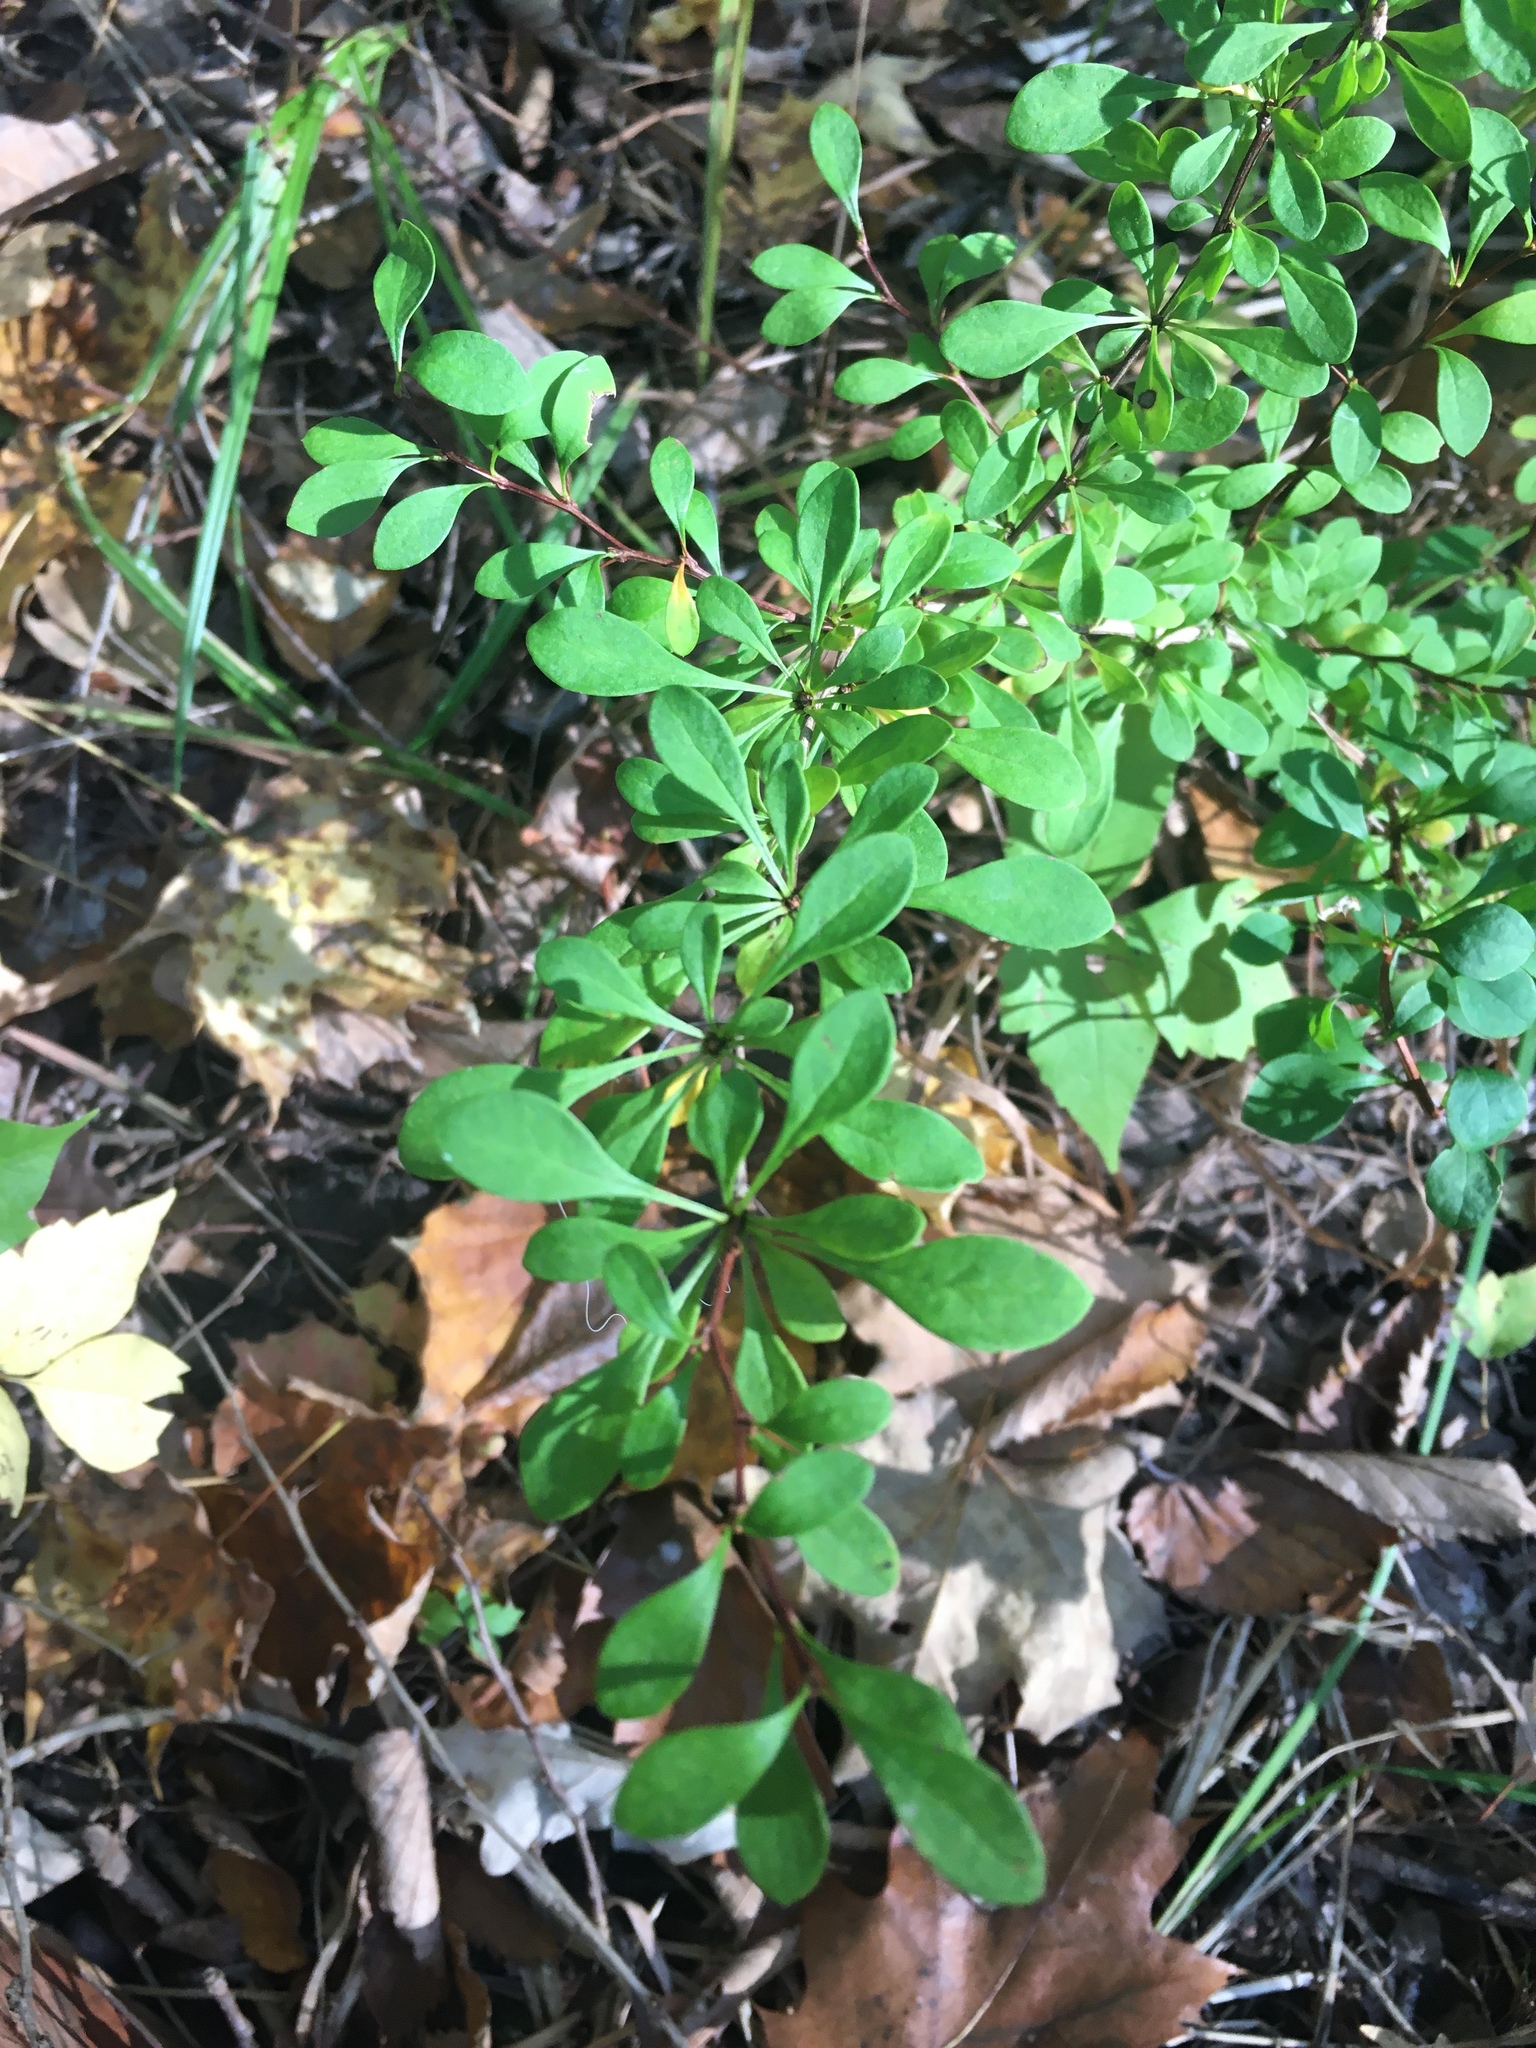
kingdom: Plantae
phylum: Tracheophyta
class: Magnoliopsida
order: Ranunculales
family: Berberidaceae
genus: Berberis
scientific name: Berberis thunbergii
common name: Japanese barberry
